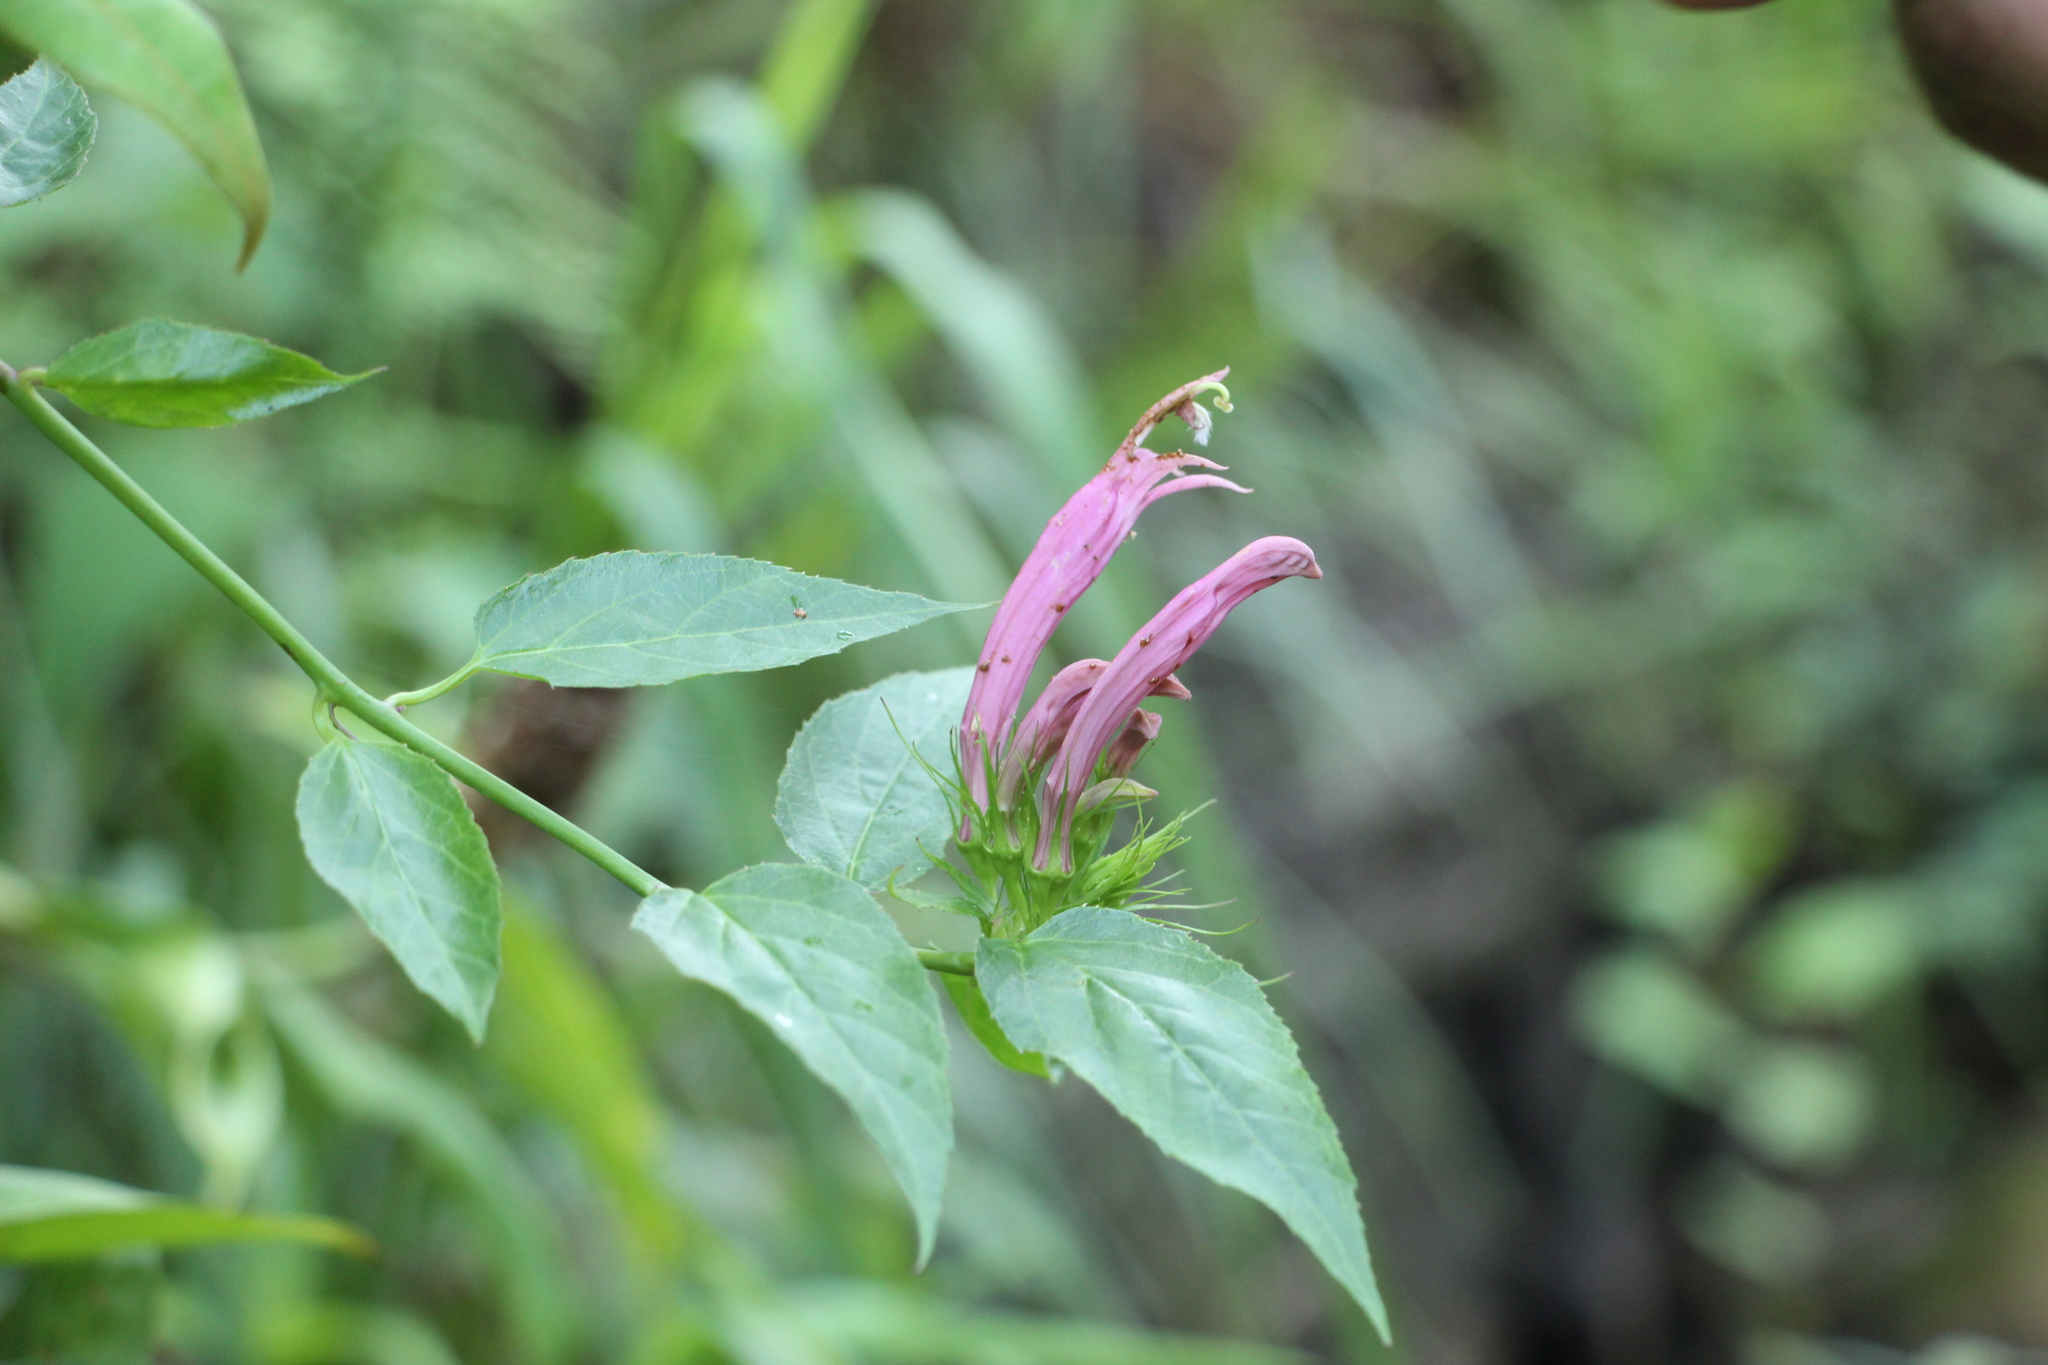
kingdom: Plantae
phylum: Tracheophyta
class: Magnoliopsida
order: Asterales
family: Campanulaceae
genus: Siphocampylus
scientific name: Siphocampylus longibracteolatus
